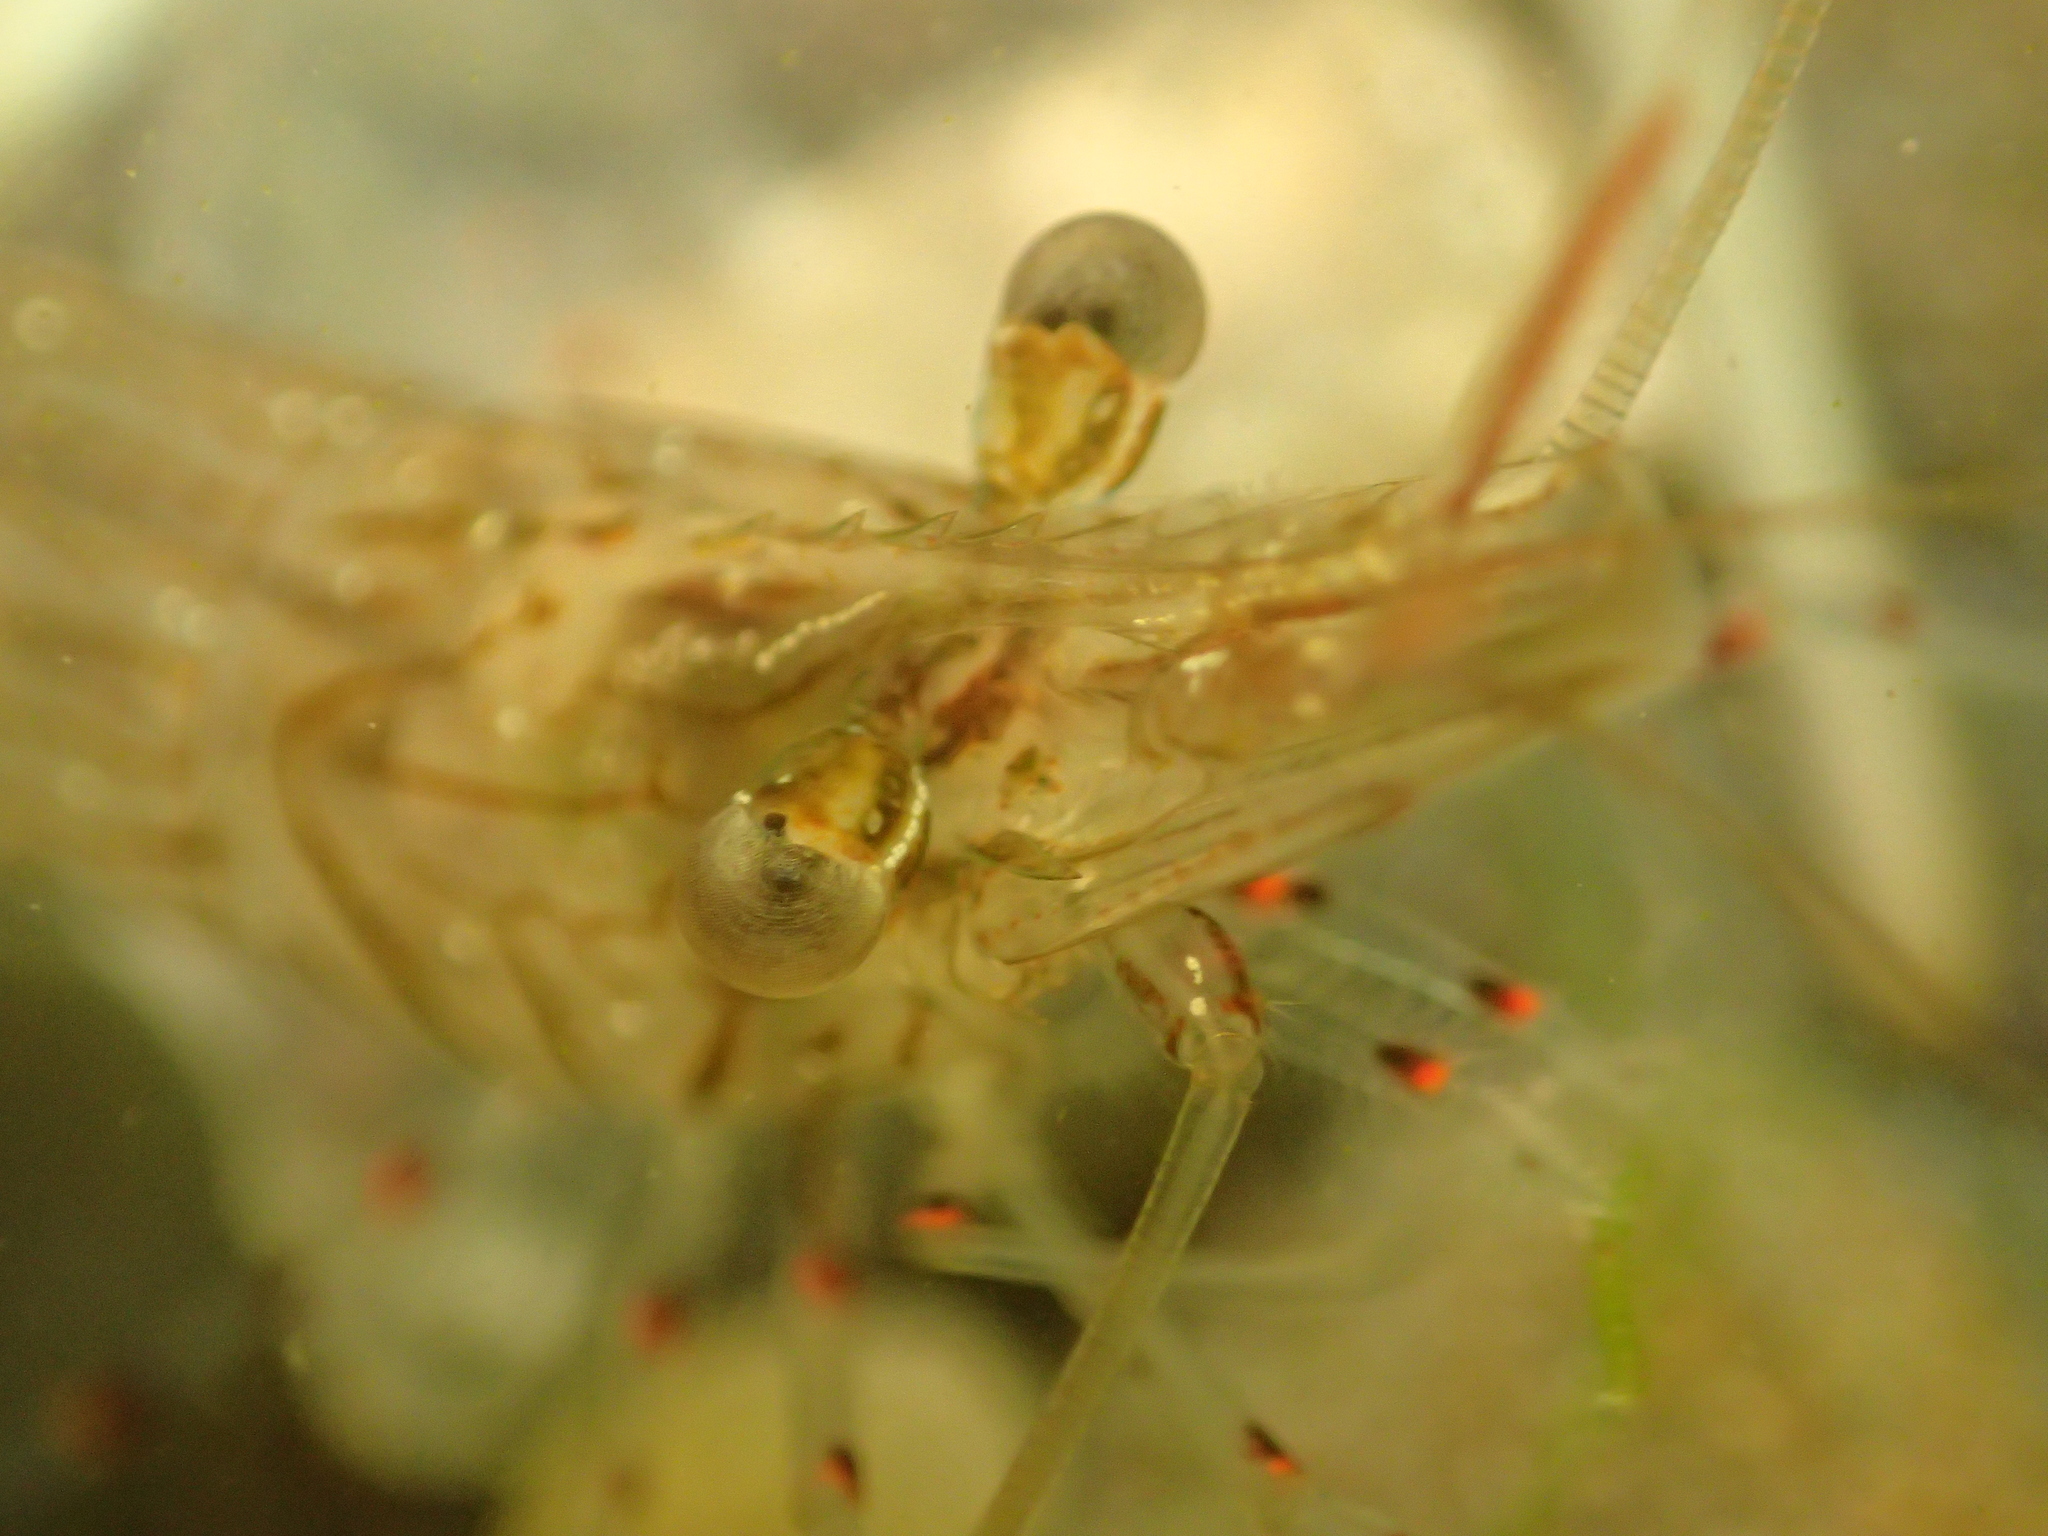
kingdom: Animalia
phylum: Arthropoda
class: Malacostraca
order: Decapoda
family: Palaemonidae
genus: Palaemon
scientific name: Palaemon affinis
